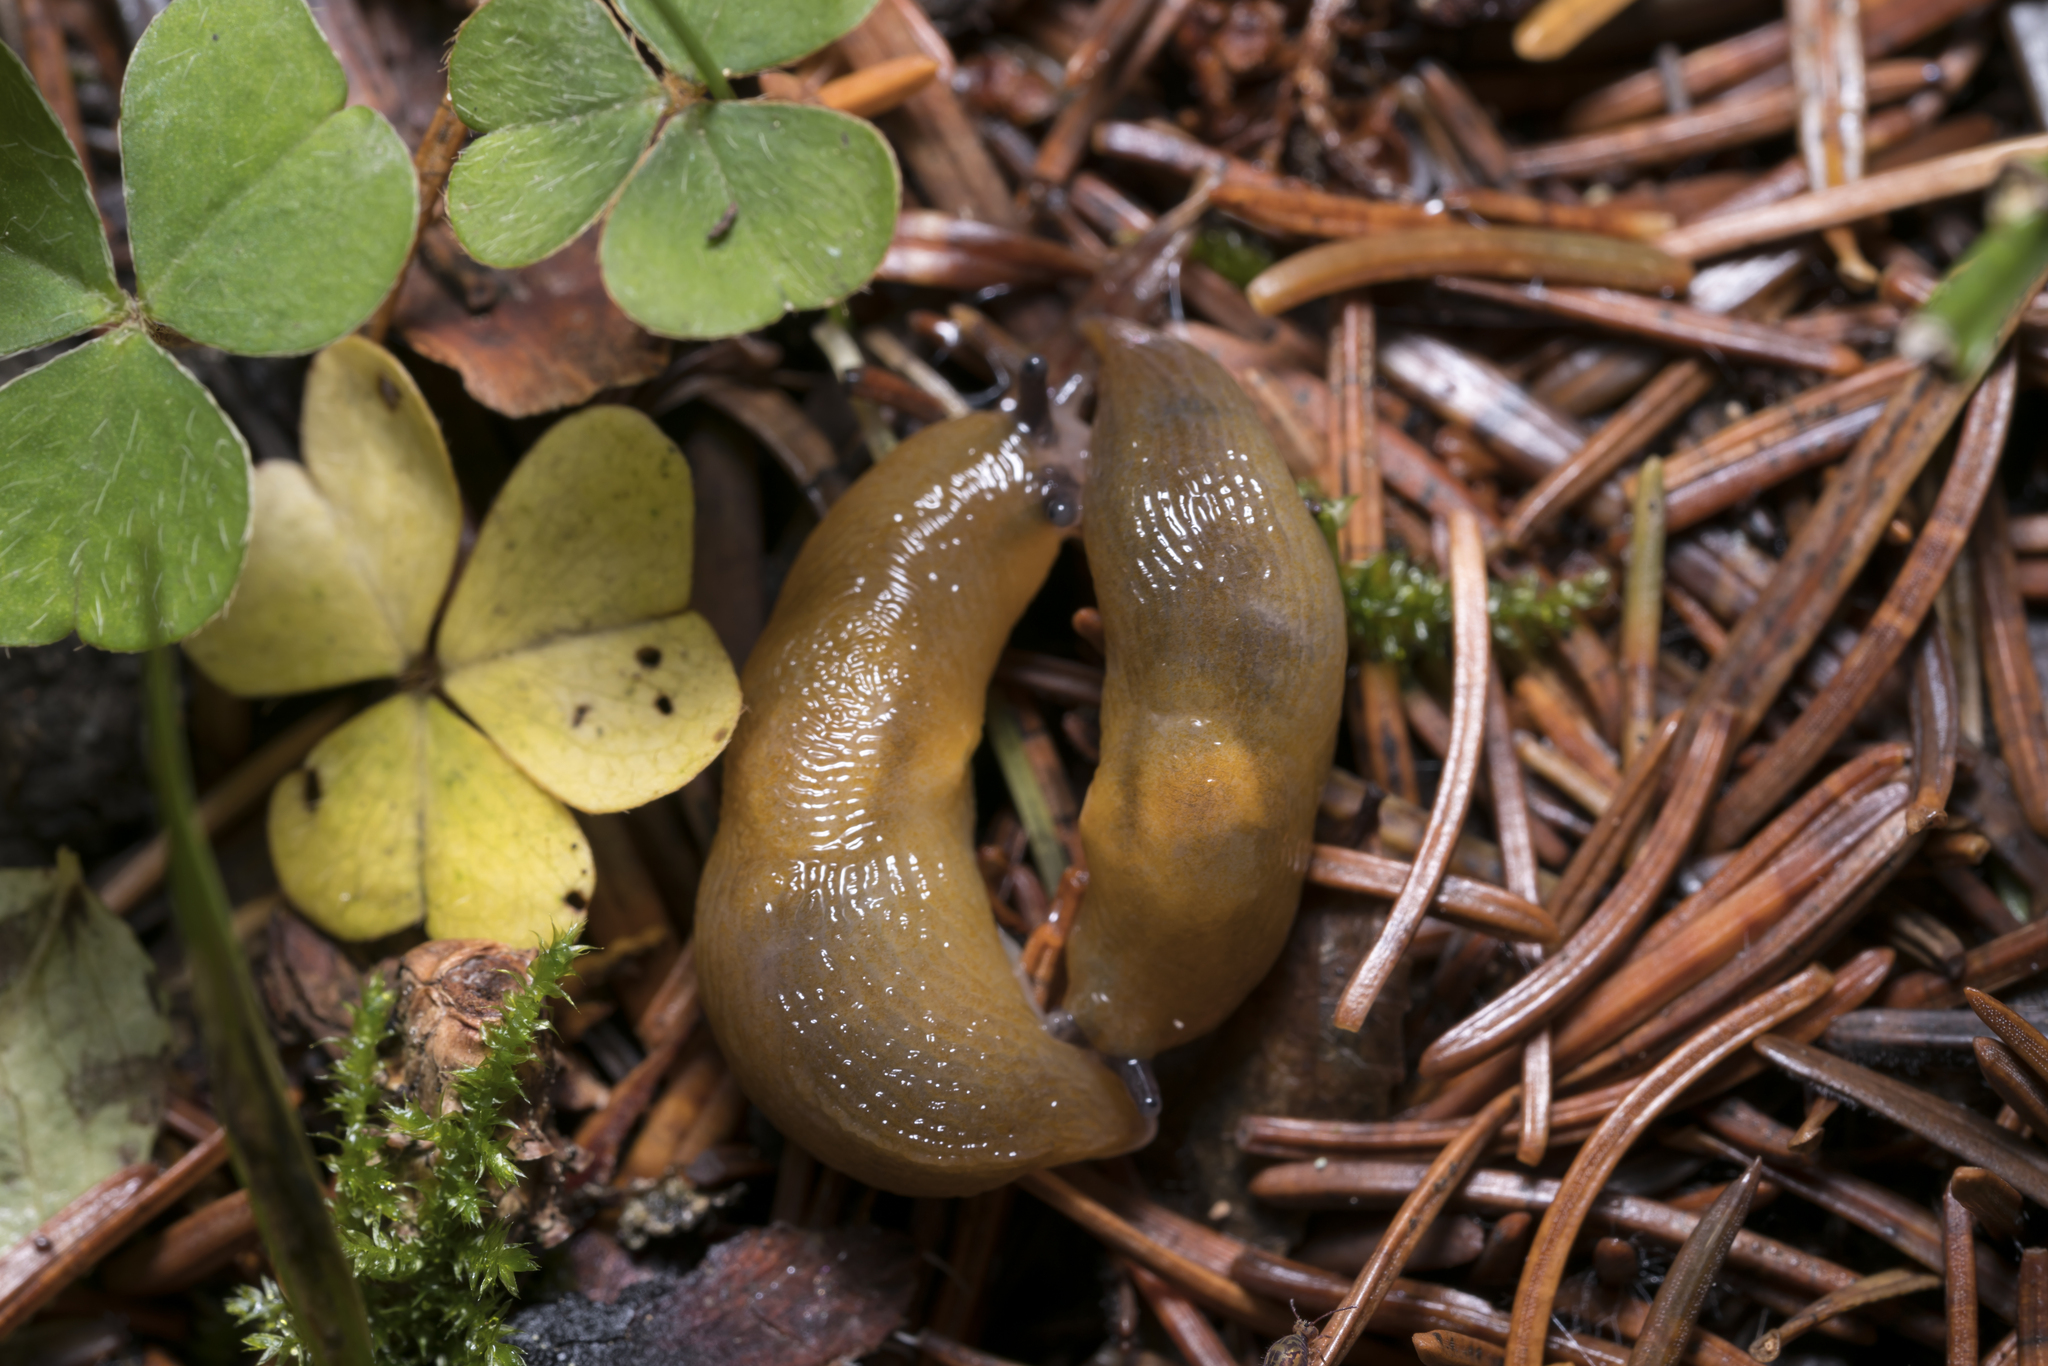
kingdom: Animalia
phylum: Mollusca
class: Gastropoda
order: Stylommatophora
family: Limacidae
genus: Malacolimax
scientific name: Malacolimax tenellus
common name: Lemon slug
